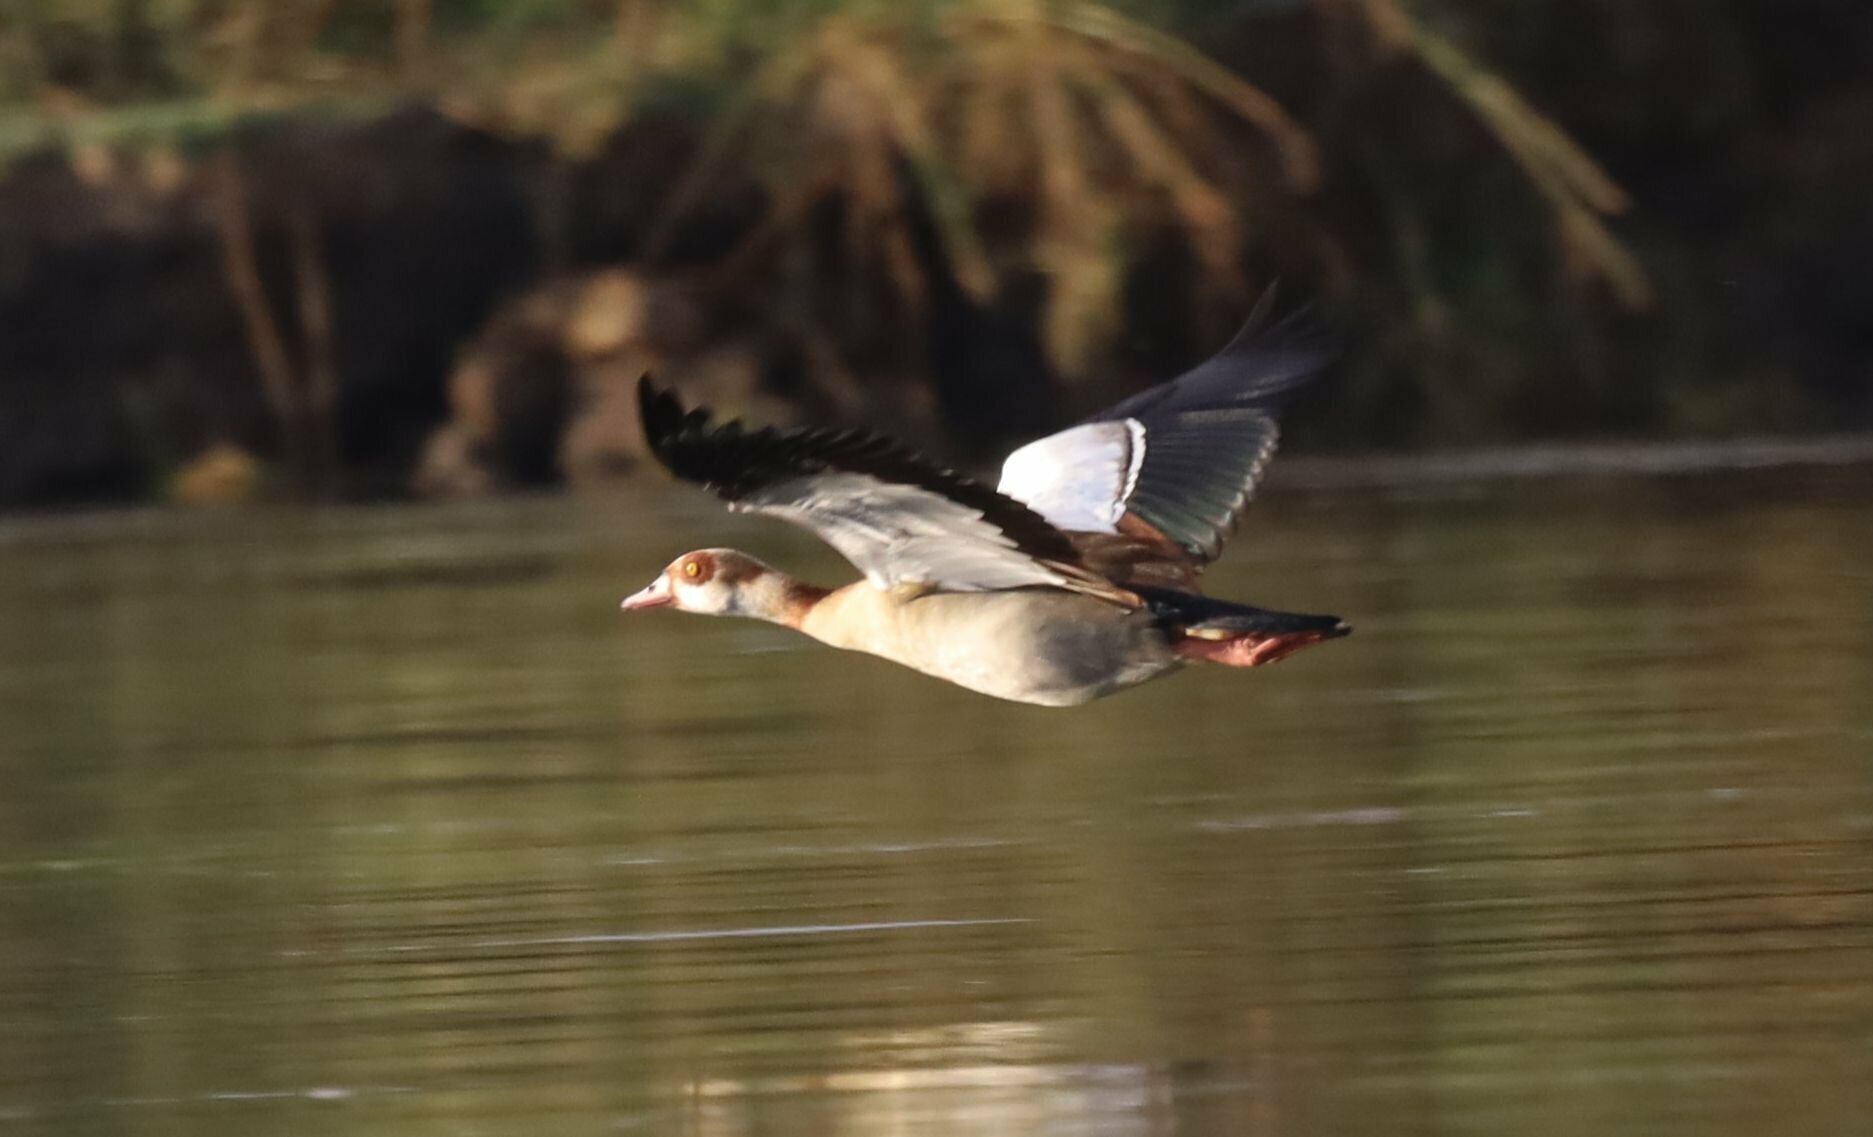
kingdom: Animalia
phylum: Chordata
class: Aves
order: Anseriformes
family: Anatidae
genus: Alopochen
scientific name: Alopochen aegyptiaca
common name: Egyptian goose
